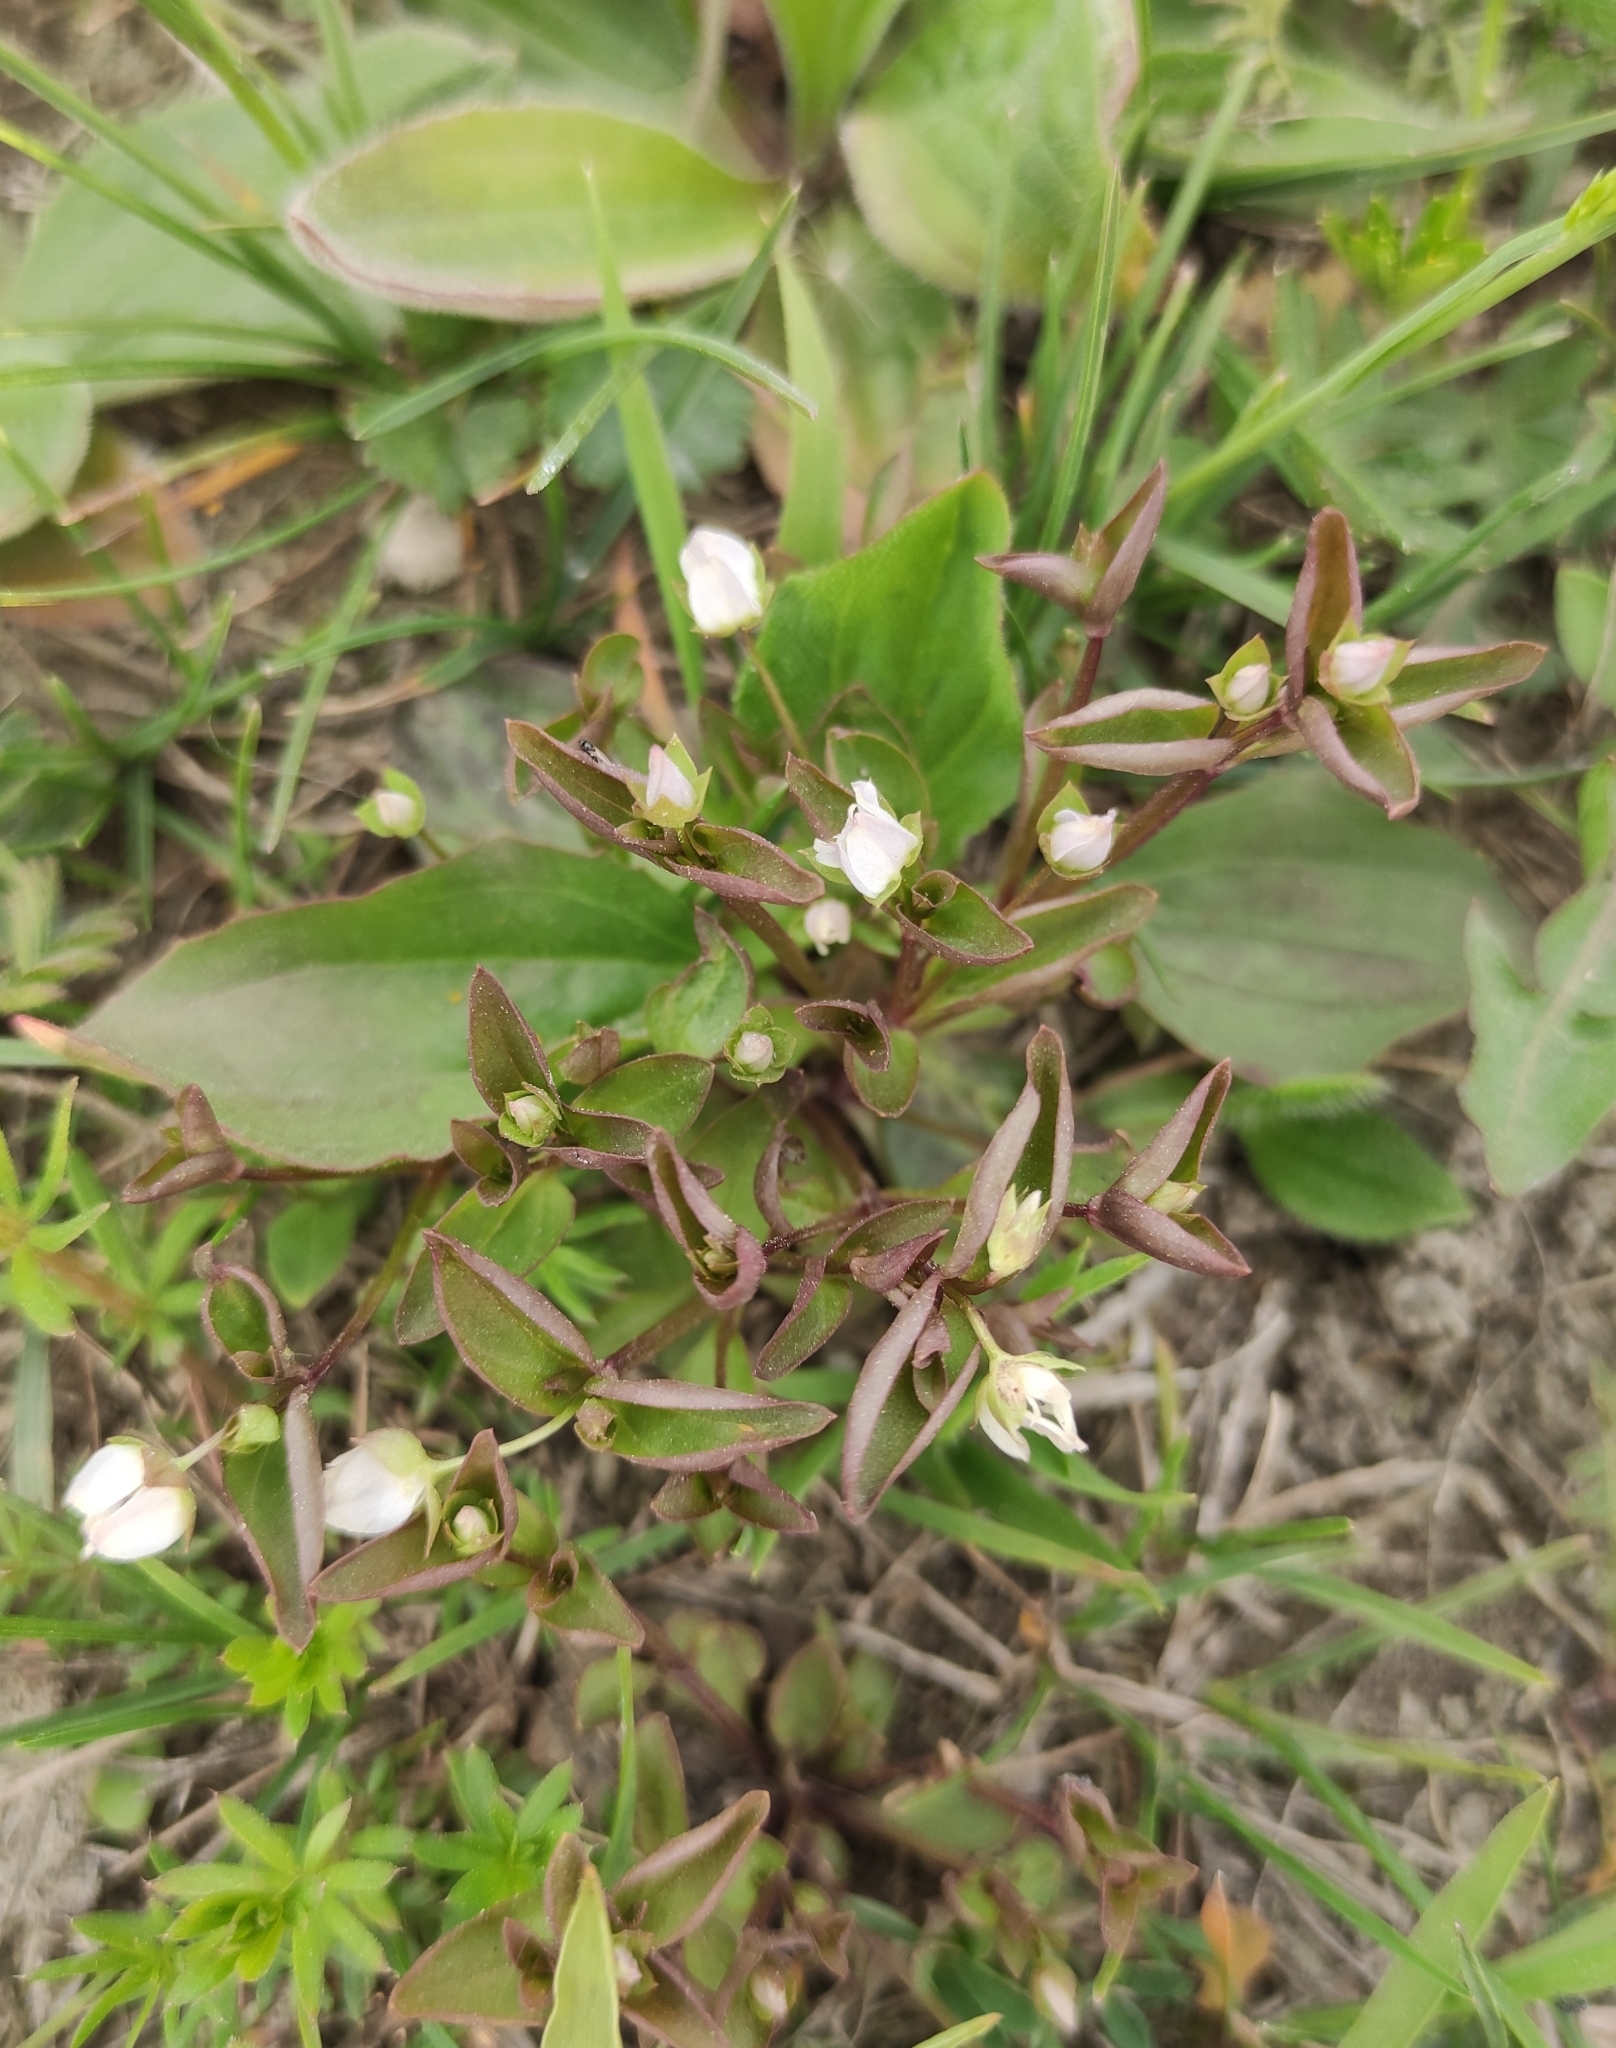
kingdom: Plantae
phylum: Tracheophyta
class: Magnoliopsida
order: Gentianales
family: Gentianaceae
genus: Swertia
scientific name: Swertia dichotoma
